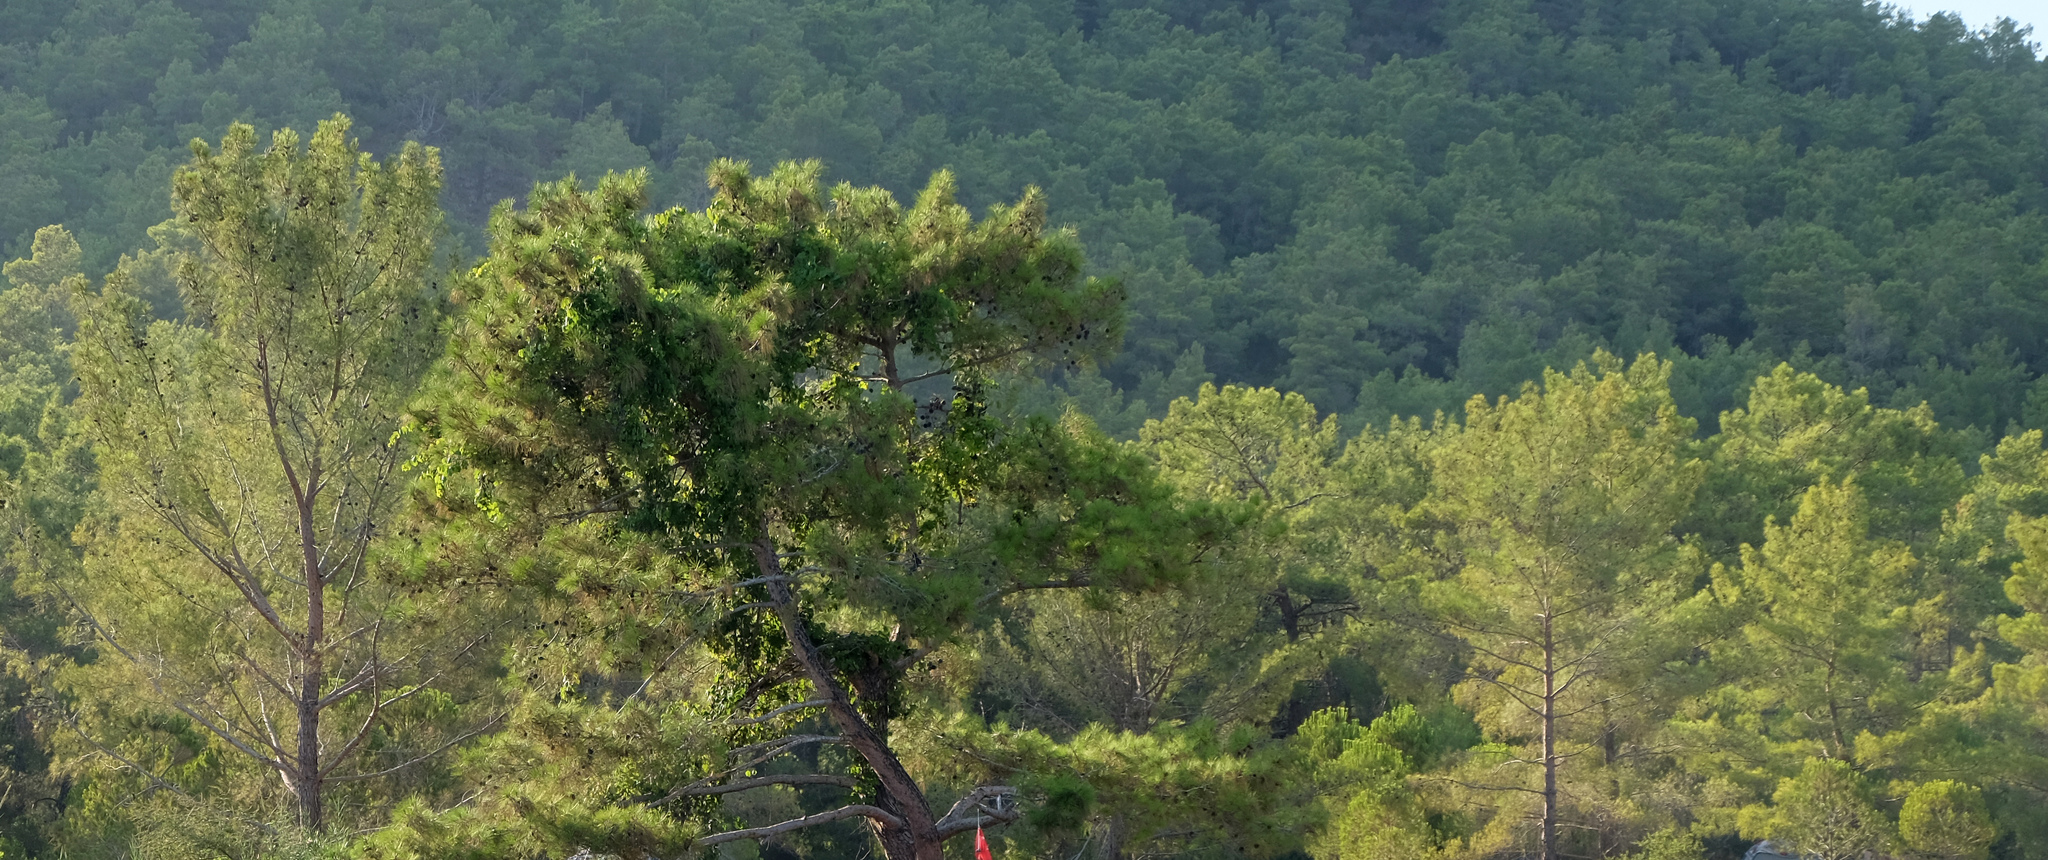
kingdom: Plantae
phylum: Tracheophyta
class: Pinopsida
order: Pinales
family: Pinaceae
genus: Pinus
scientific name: Pinus brutia
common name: Turkish pine
